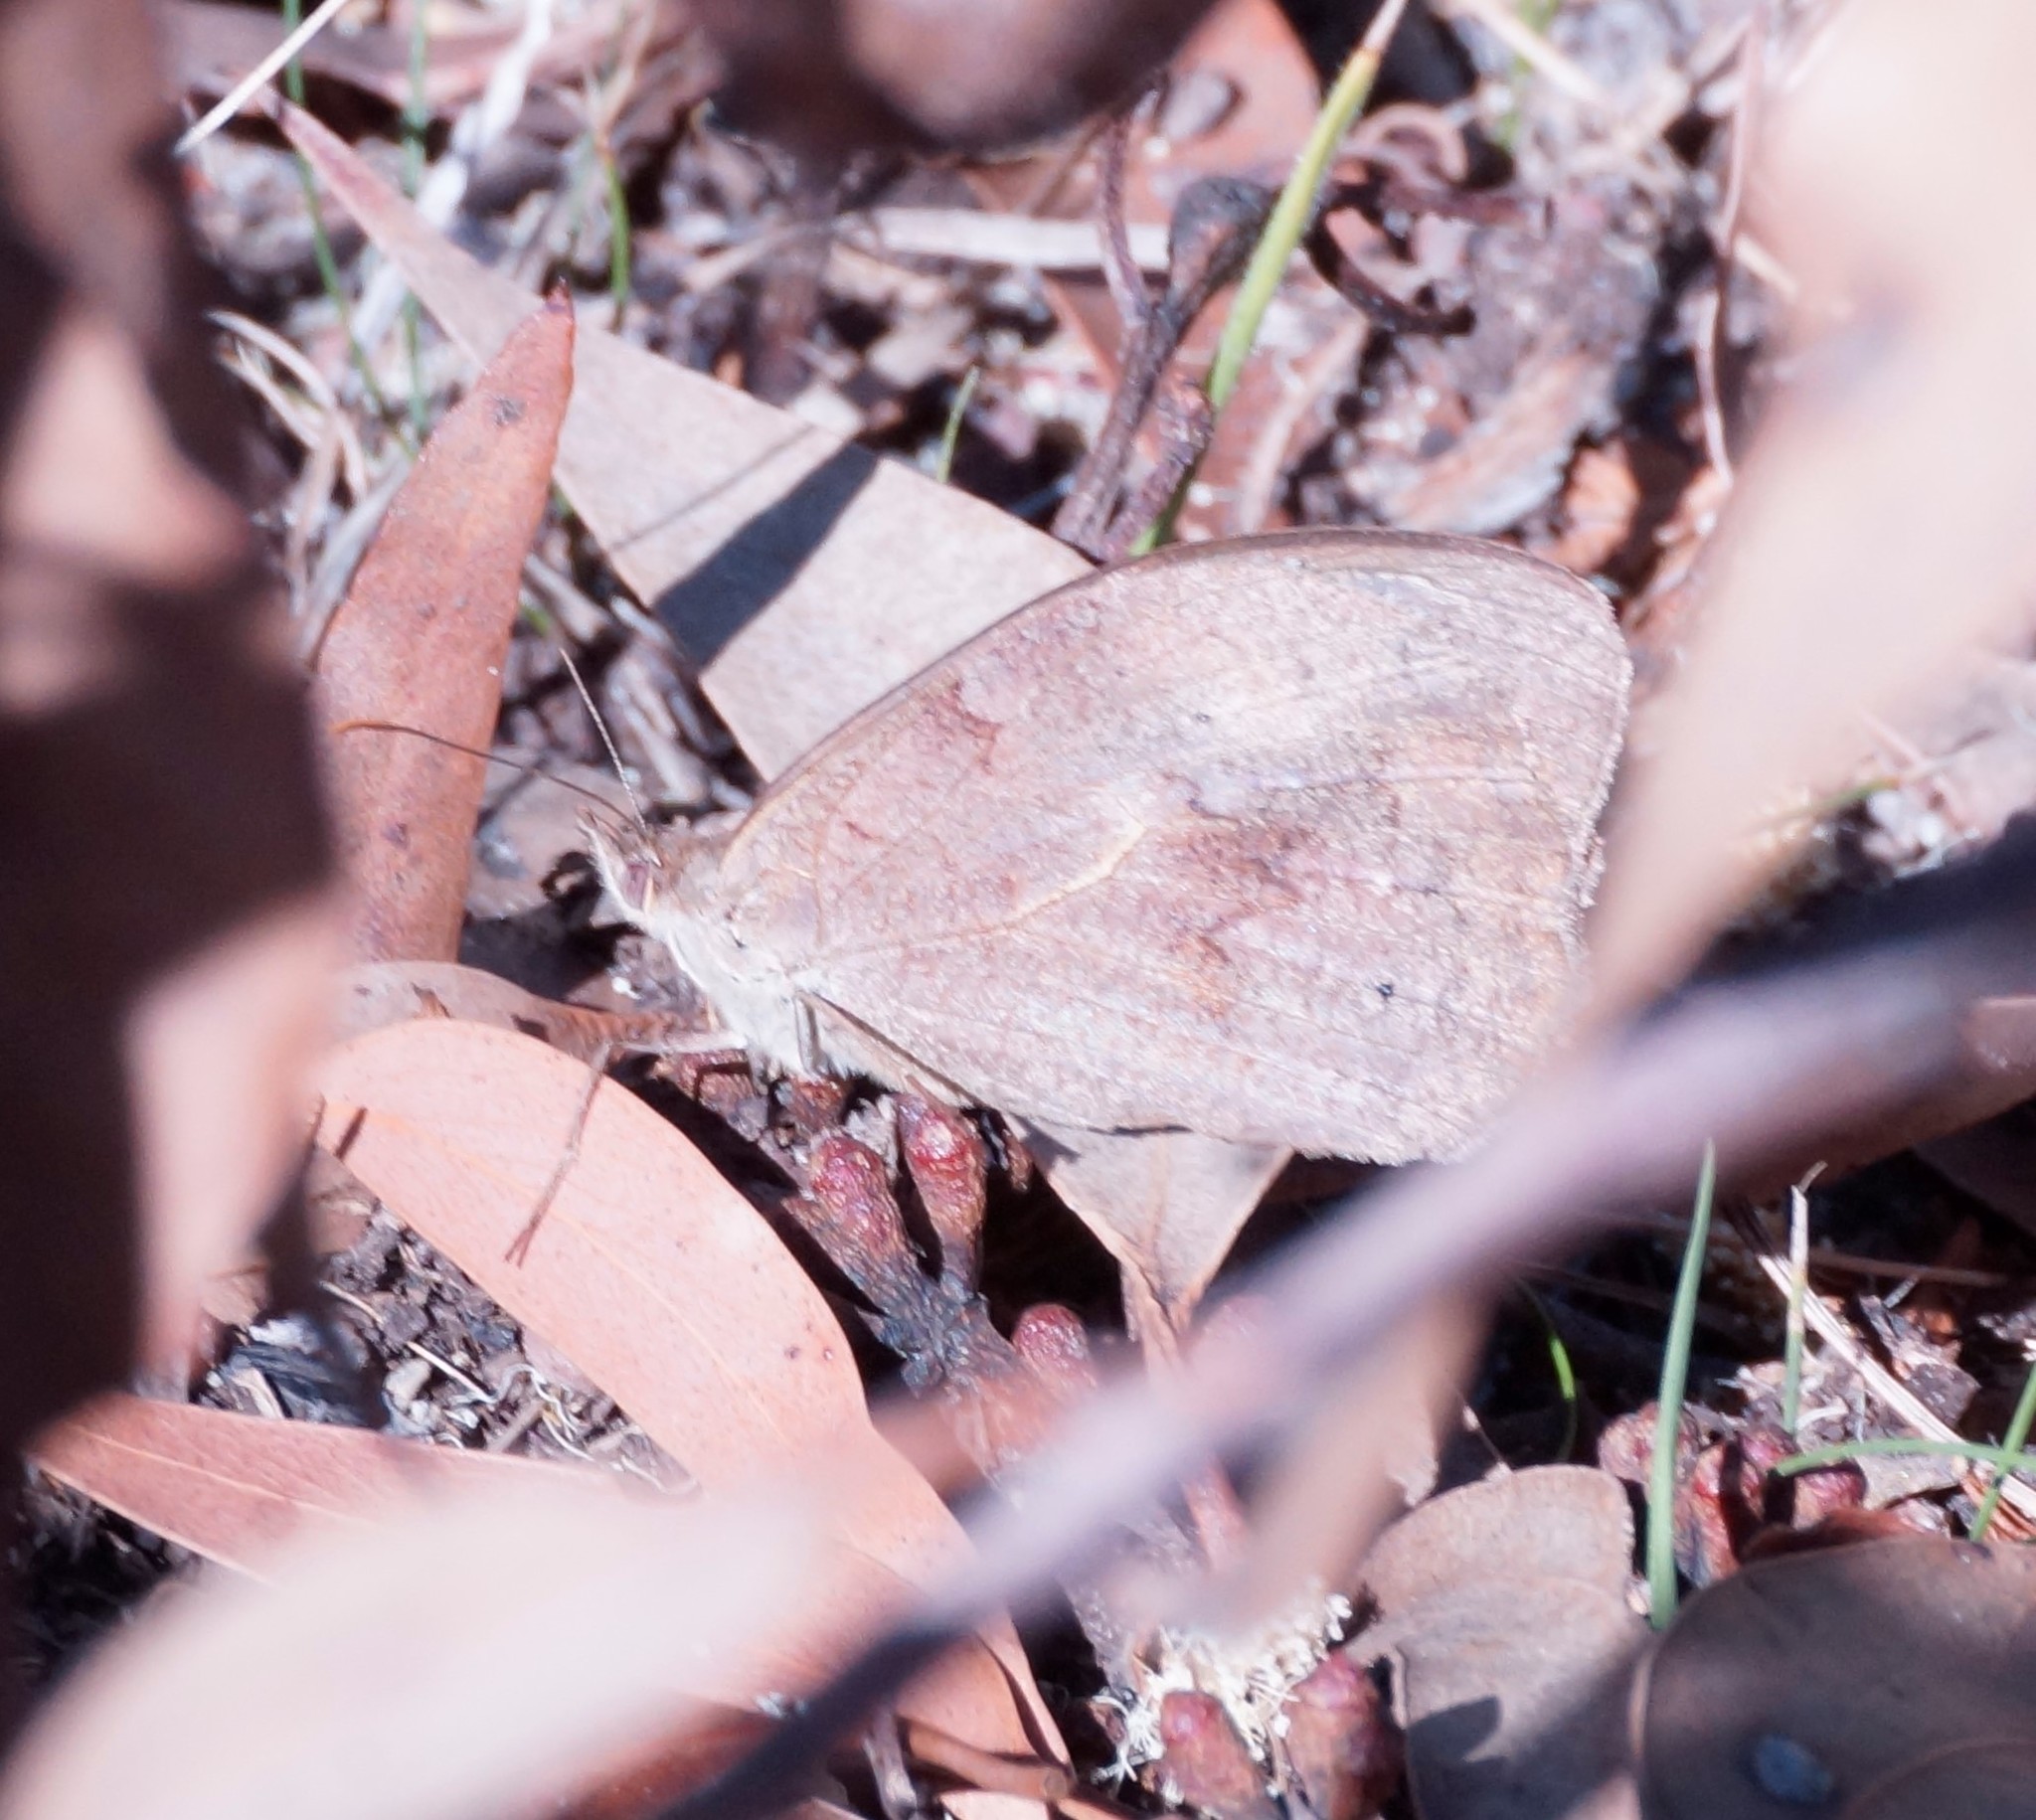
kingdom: Animalia
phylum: Arthropoda
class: Insecta
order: Lepidoptera
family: Nymphalidae
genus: Heteronympha
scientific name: Heteronympha merope
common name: Common brown
